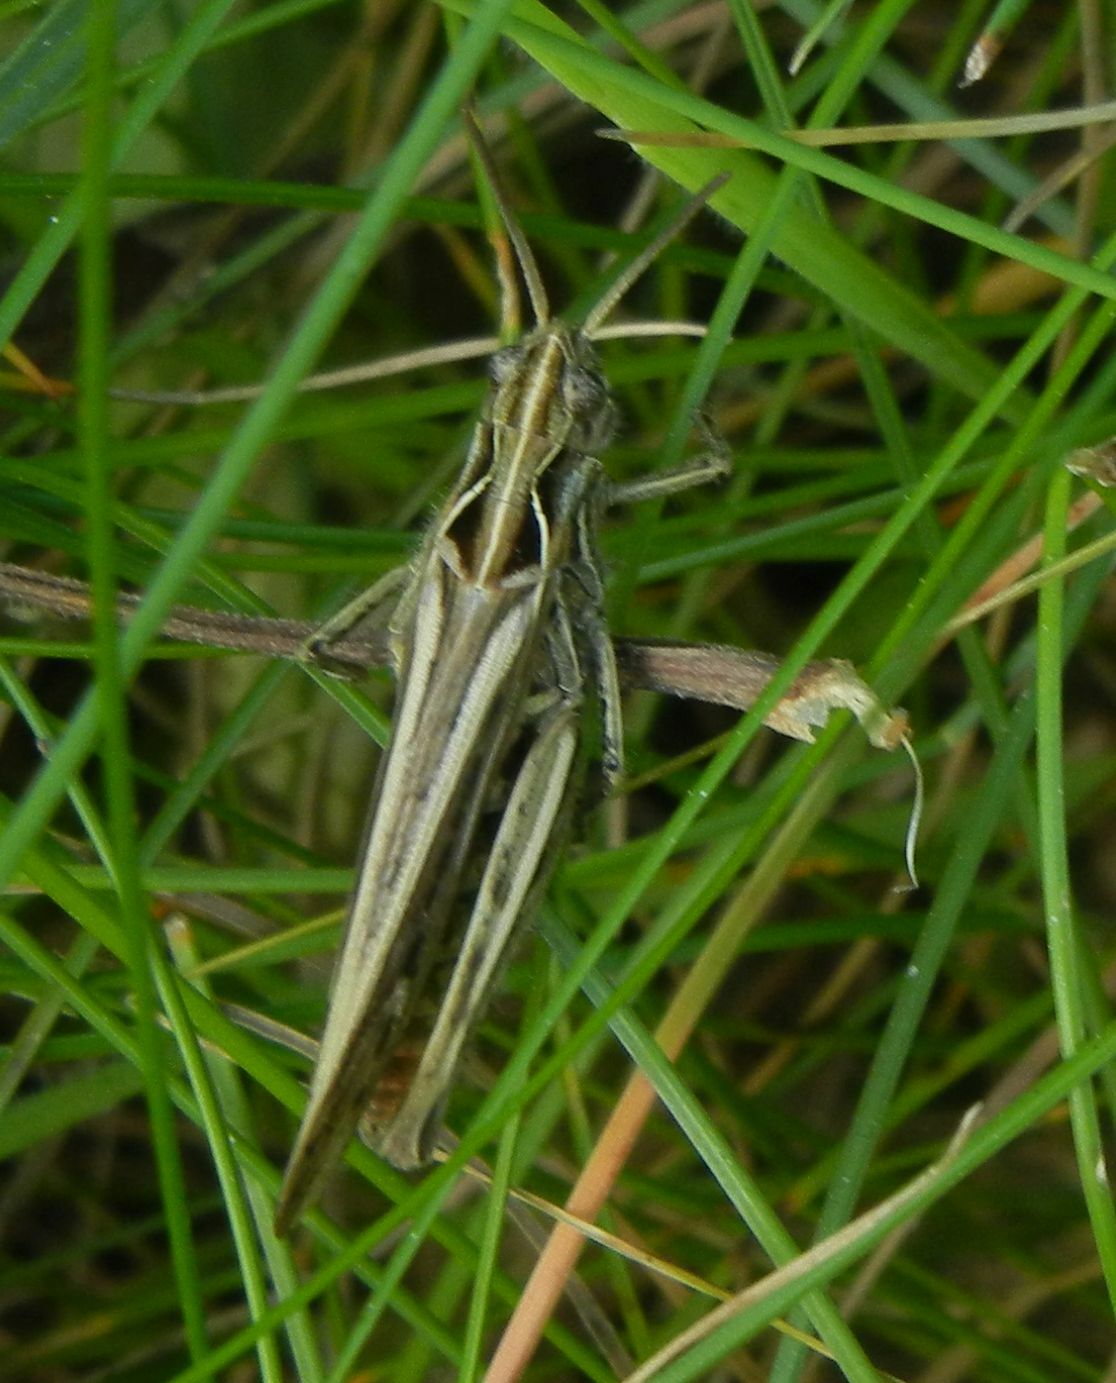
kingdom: Animalia
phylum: Arthropoda
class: Insecta
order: Orthoptera
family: Acrididae
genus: Chorthippus
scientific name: Chorthippus brunneus
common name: Field grasshopper
